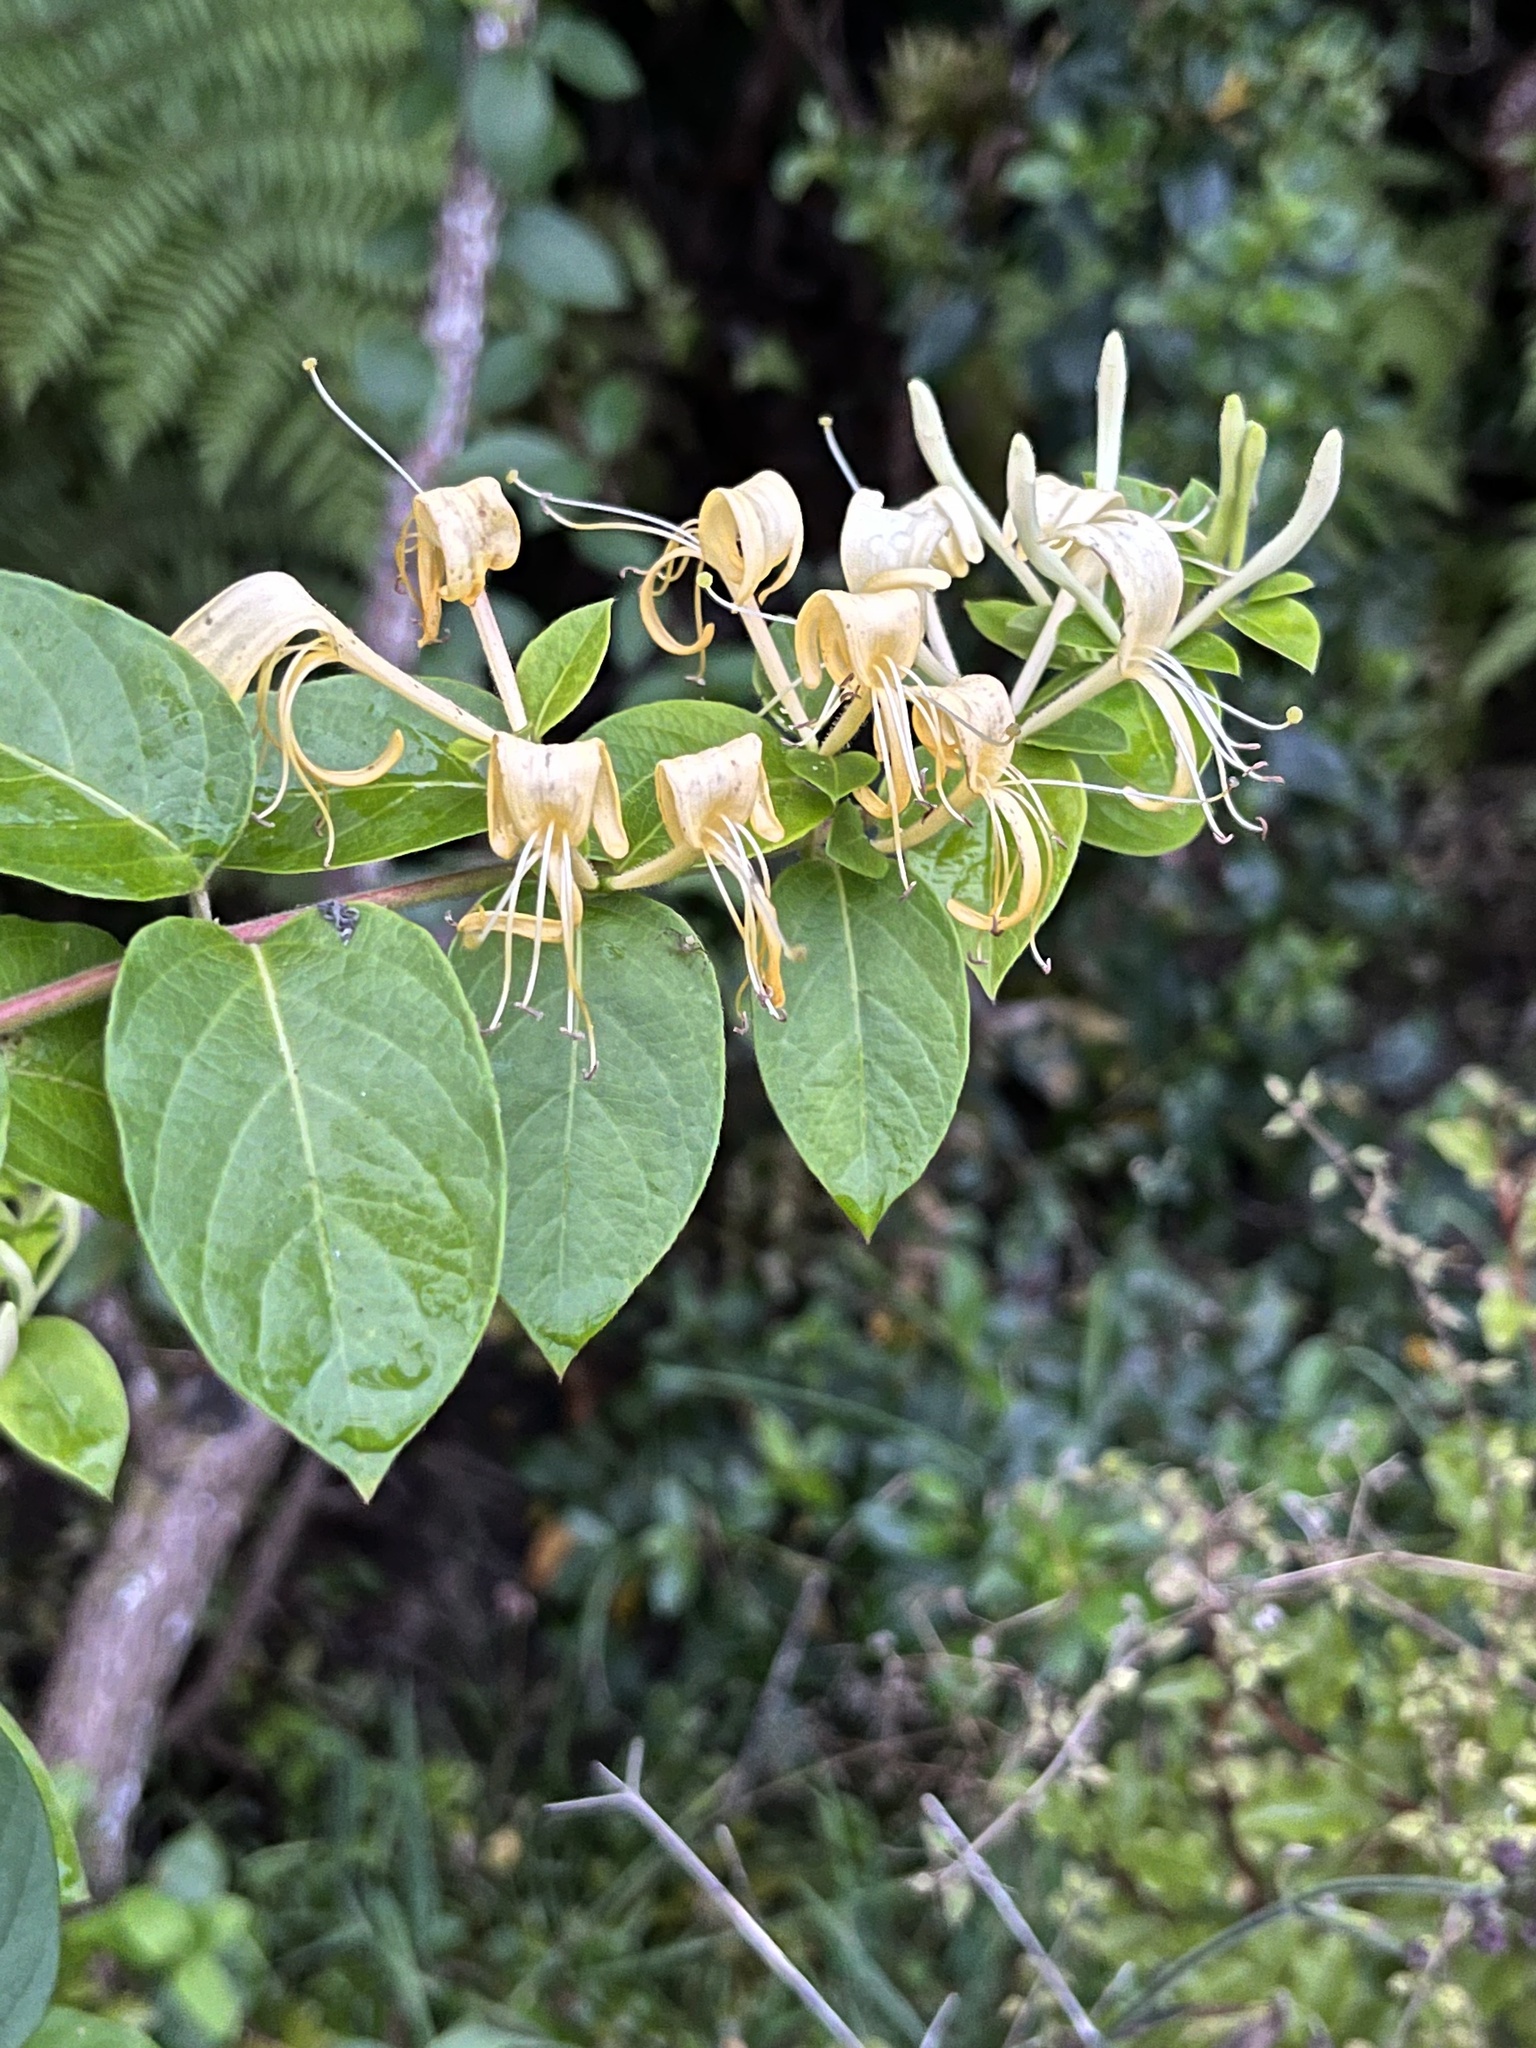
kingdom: Plantae
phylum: Tracheophyta
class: Magnoliopsida
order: Dipsacales
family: Caprifoliaceae
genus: Lonicera
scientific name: Lonicera japonica
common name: Japanese honeysuckle
